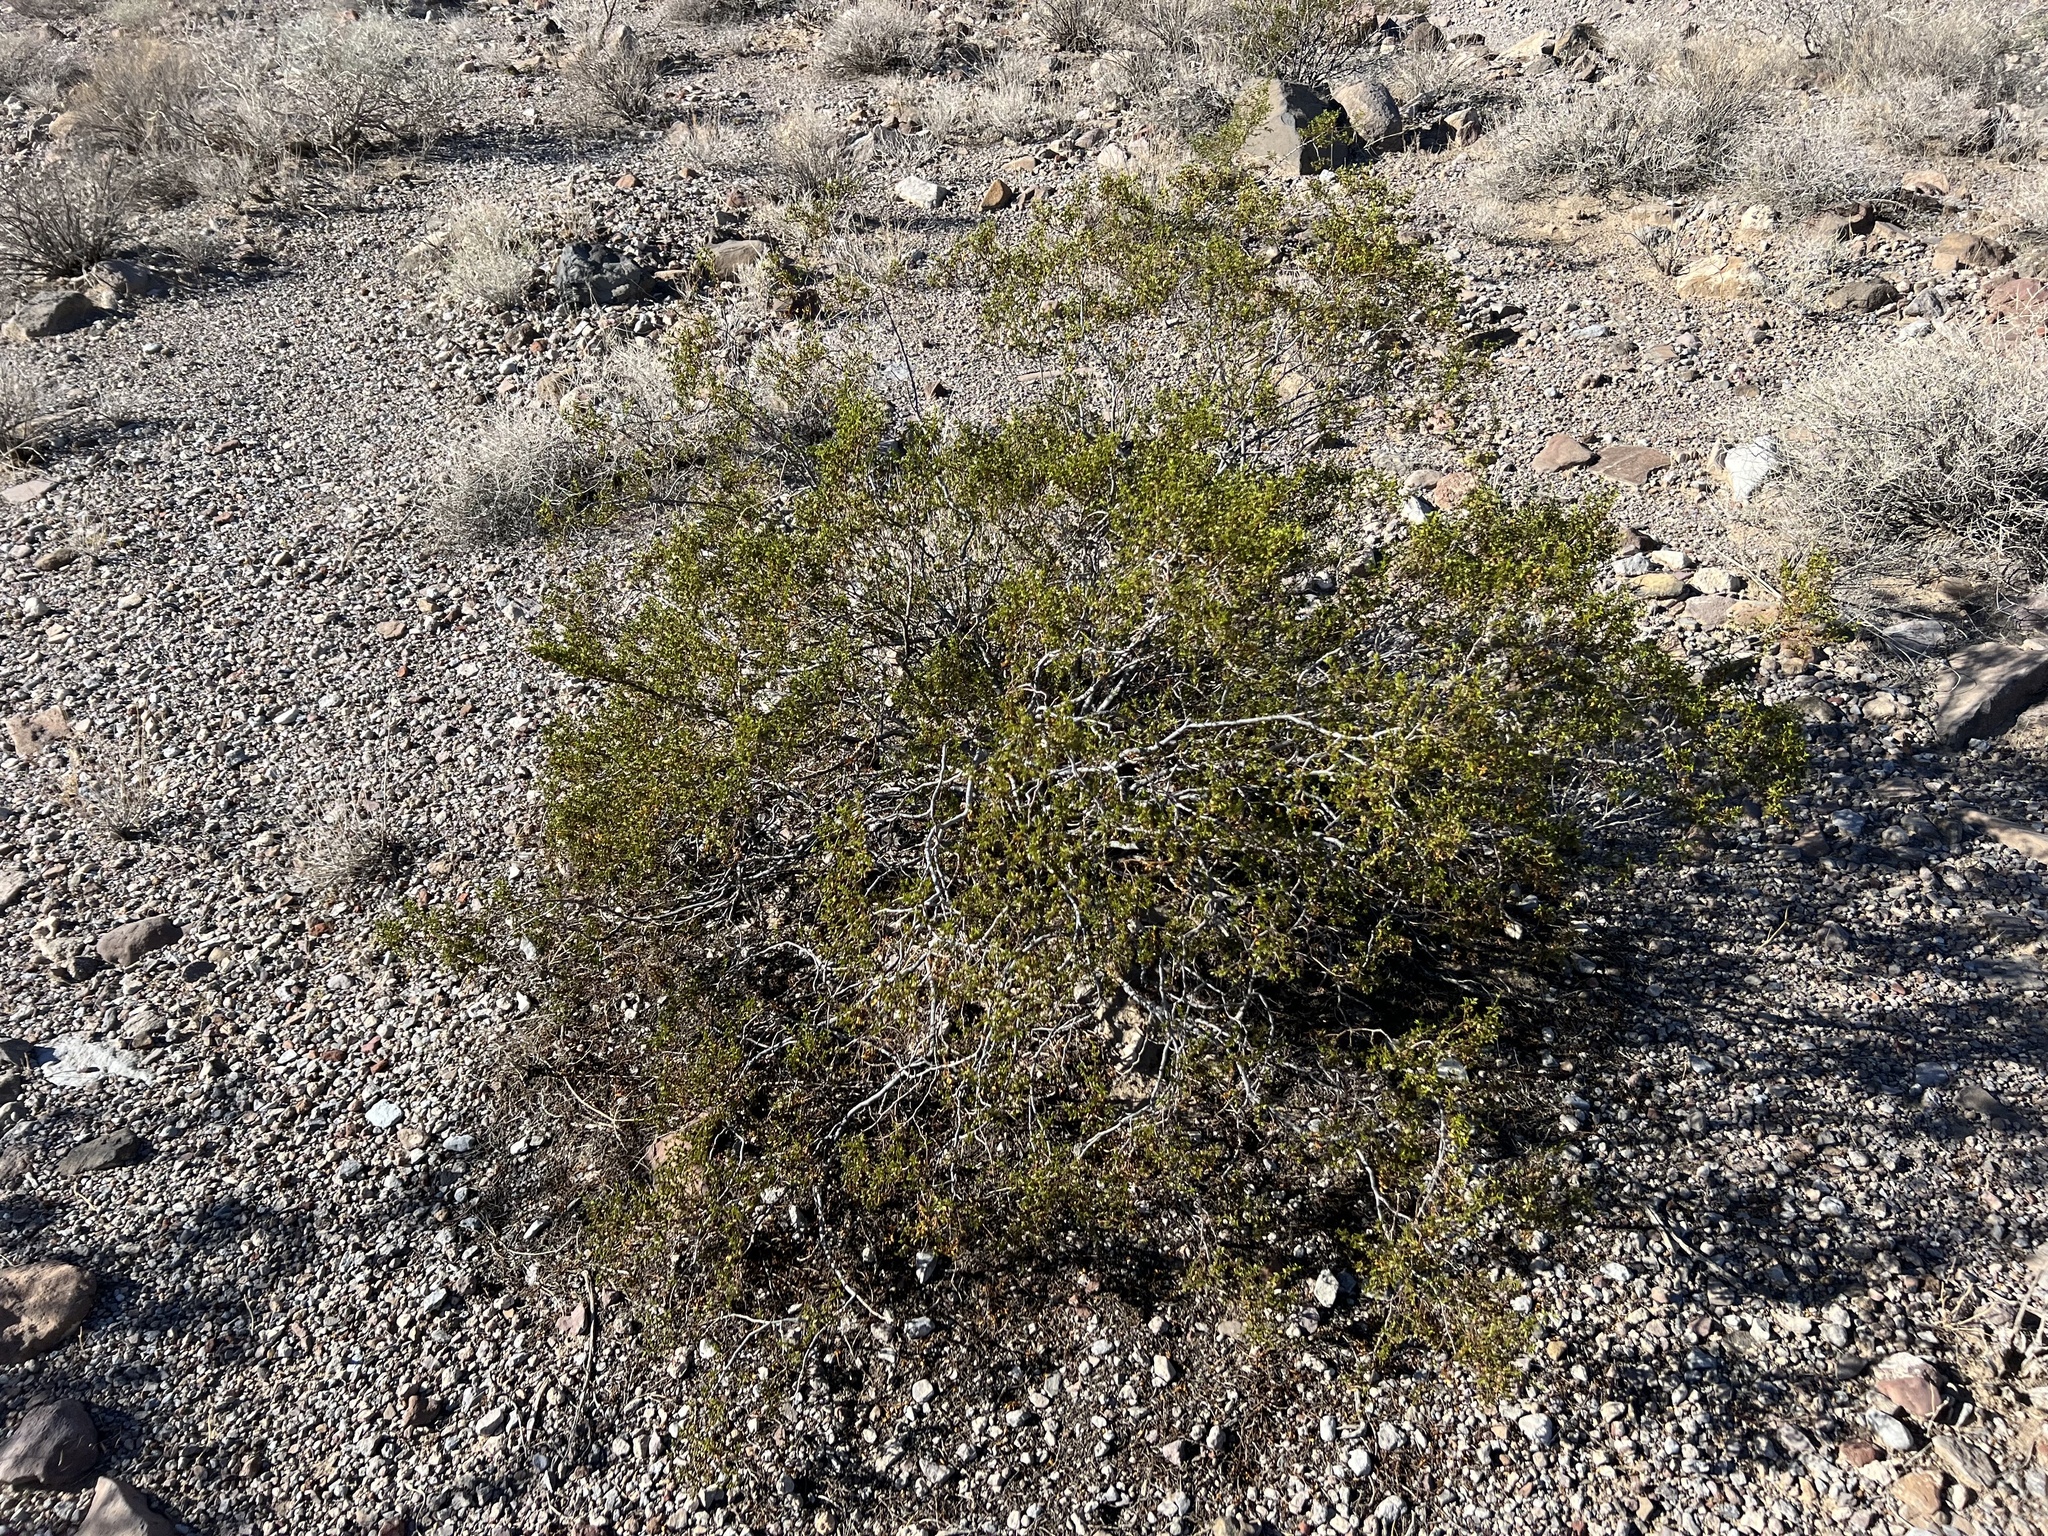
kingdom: Plantae
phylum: Tracheophyta
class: Magnoliopsida
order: Zygophyllales
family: Zygophyllaceae
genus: Larrea
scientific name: Larrea tridentata
